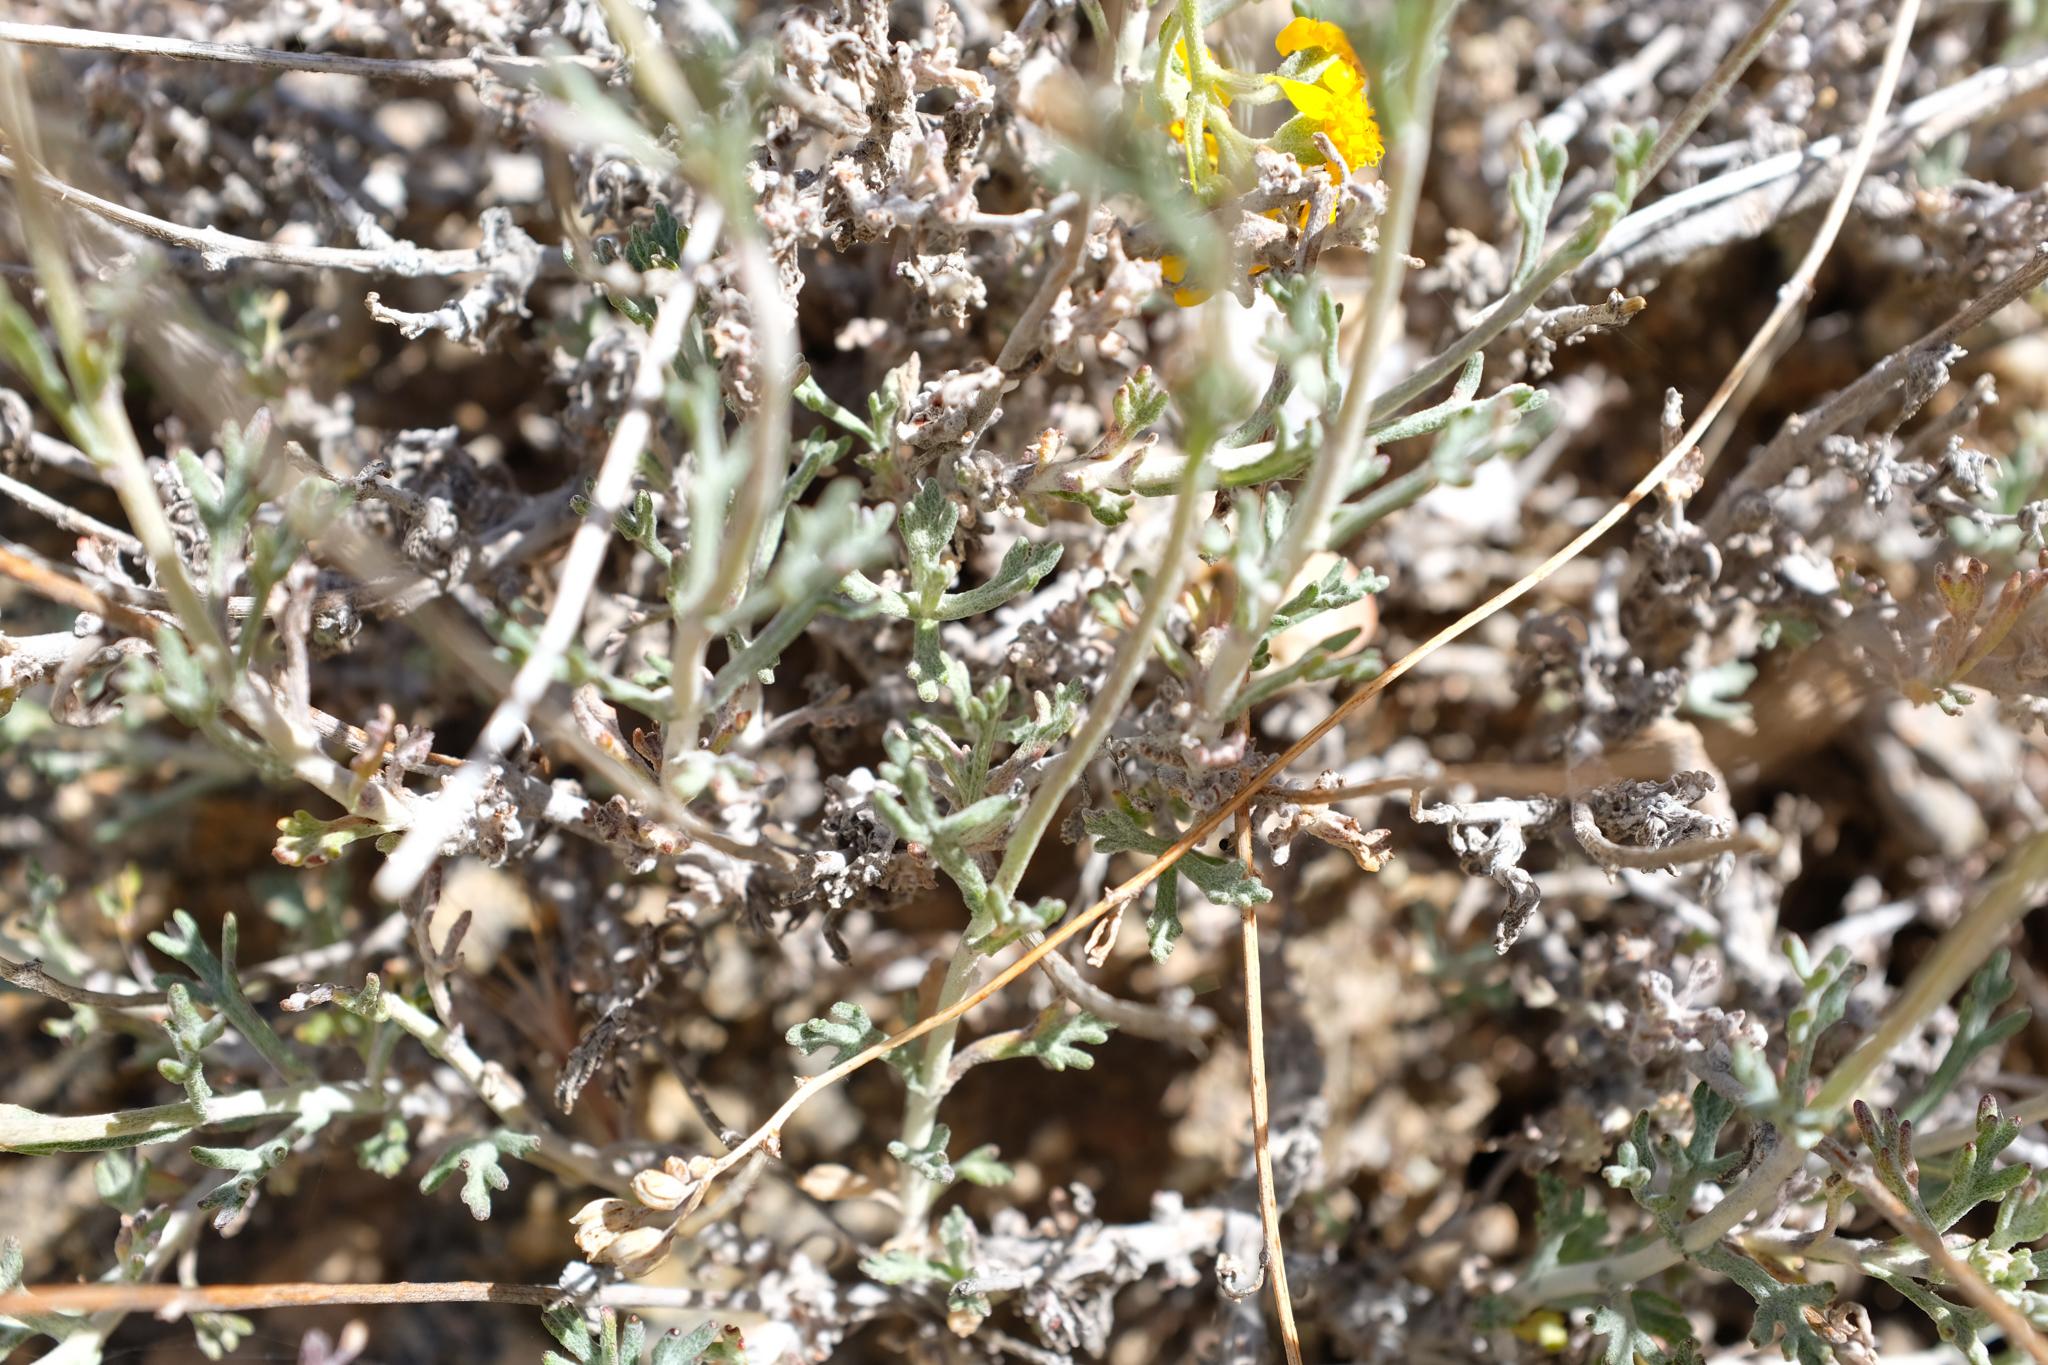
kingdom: Plantae
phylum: Tracheophyta
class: Magnoliopsida
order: Asterales
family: Asteraceae
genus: Eriophyllum
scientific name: Eriophyllum confertiflorum
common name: Golden-yarrow
